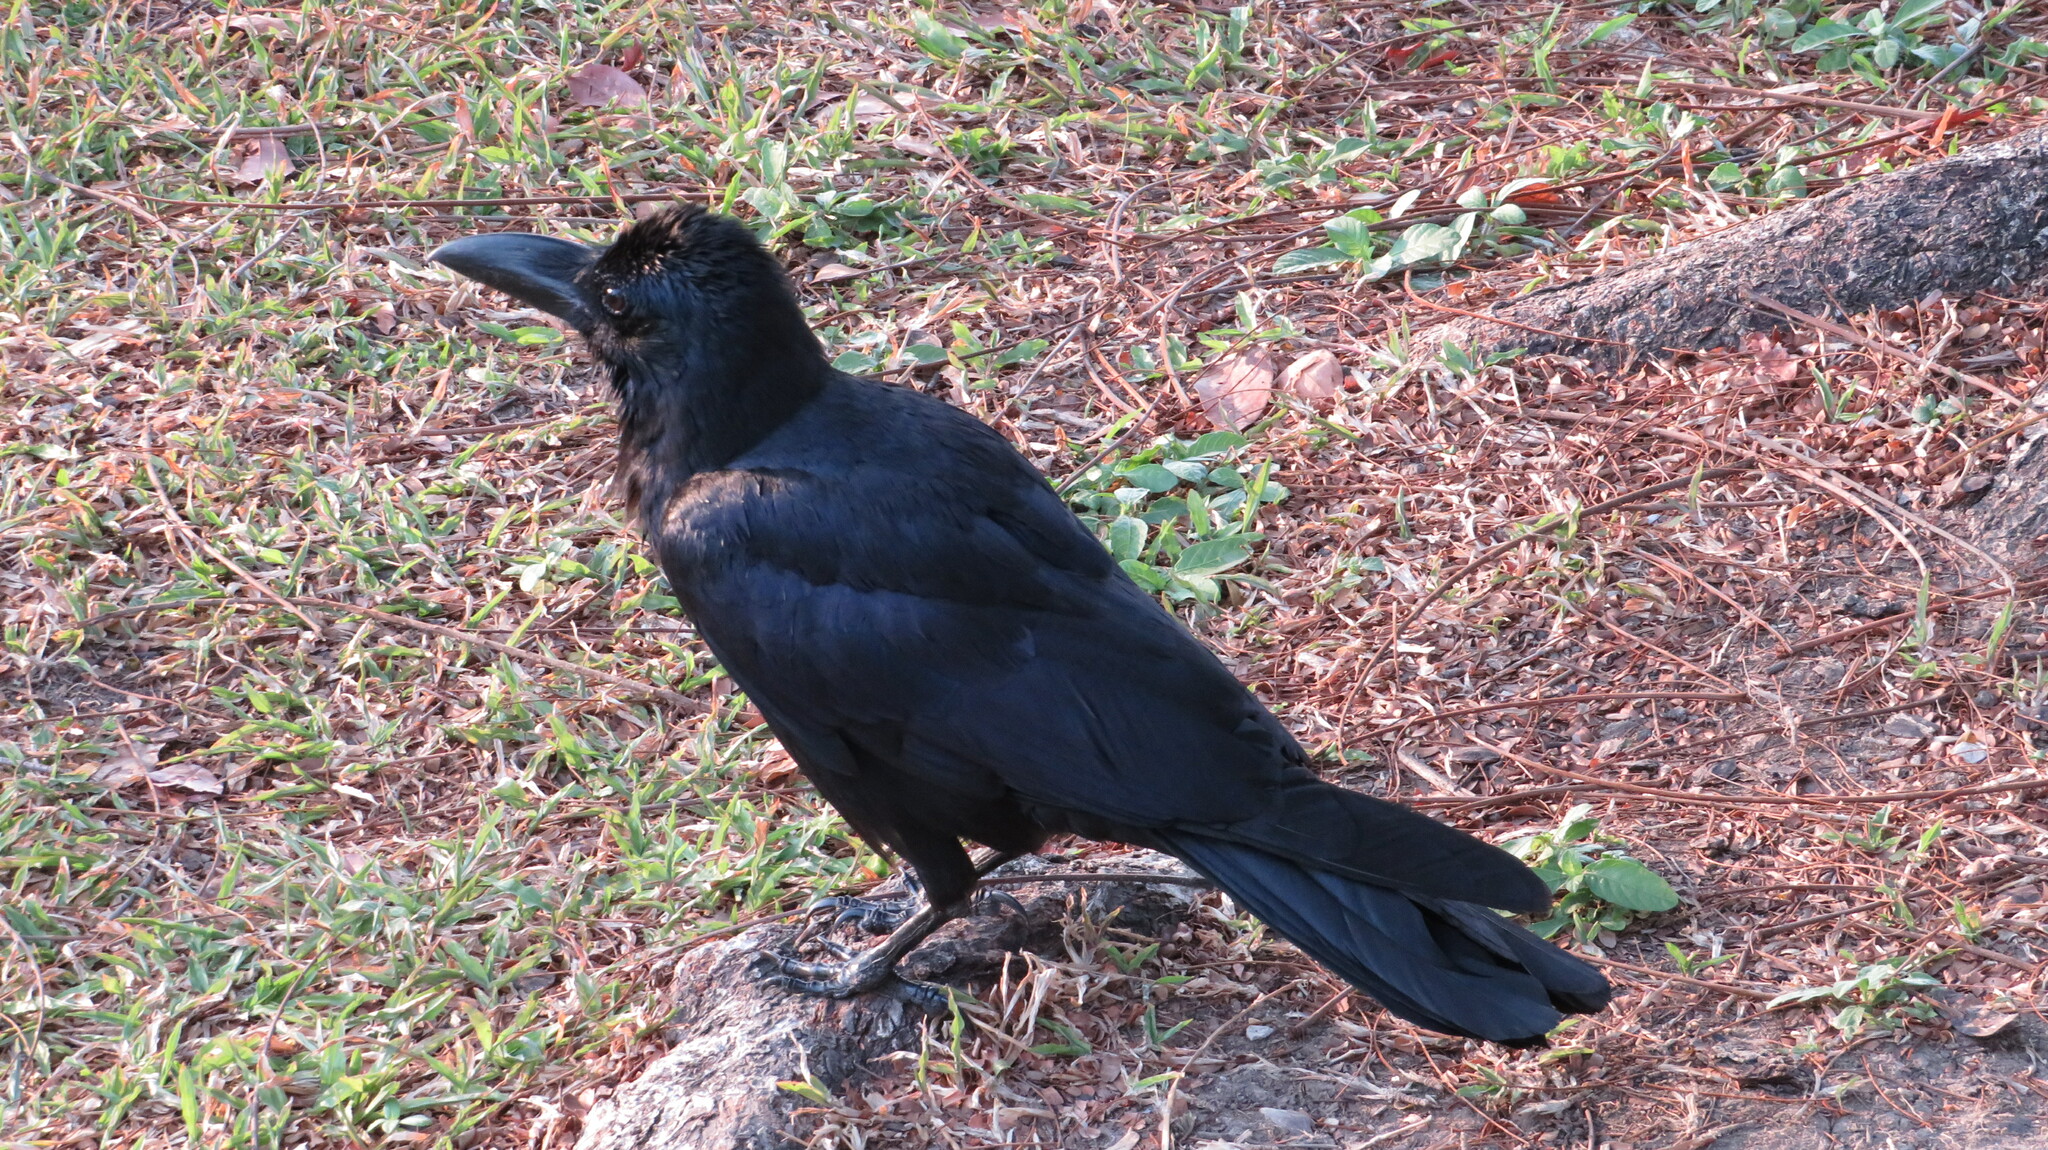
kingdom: Animalia
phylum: Chordata
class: Aves
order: Passeriformes
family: Corvidae
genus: Corvus
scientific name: Corvus macrorhynchos
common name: Large-billed crow
